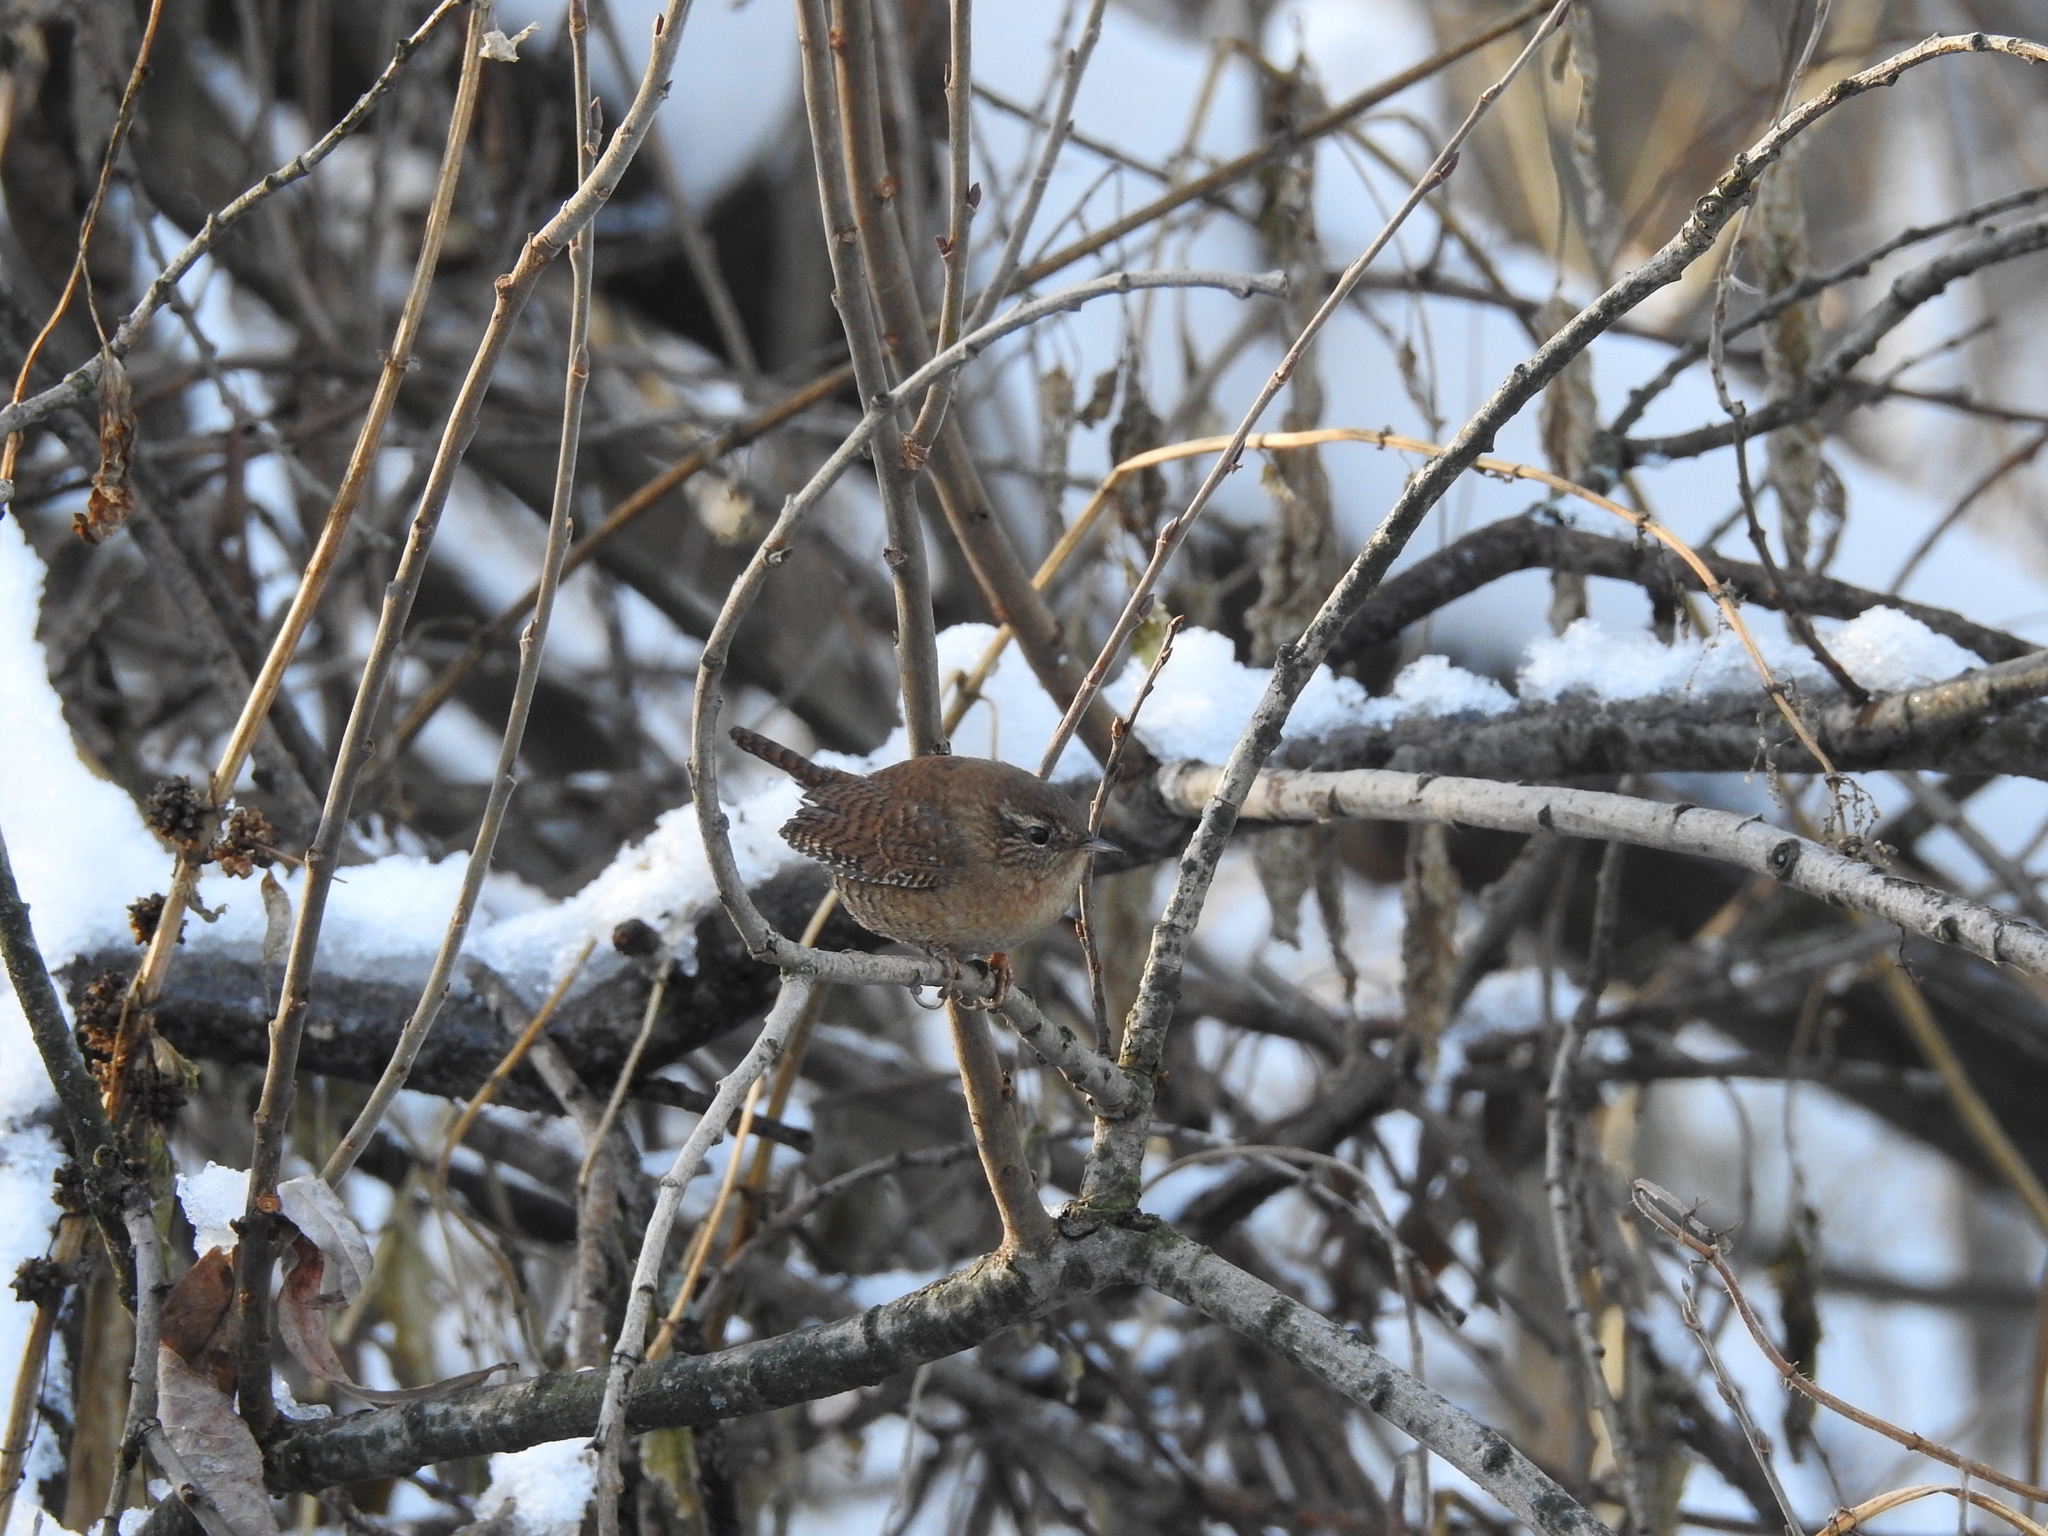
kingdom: Animalia
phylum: Chordata
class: Aves
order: Passeriformes
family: Troglodytidae
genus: Troglodytes
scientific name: Troglodytes troglodytes
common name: Eurasian wren
